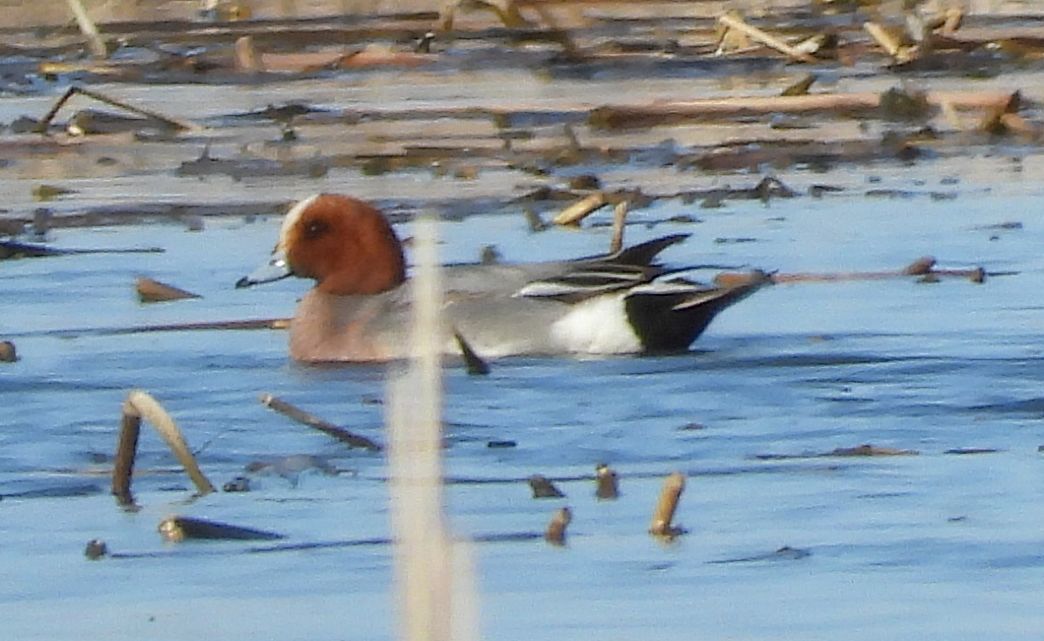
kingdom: Animalia
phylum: Chordata
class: Aves
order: Anseriformes
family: Anatidae
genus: Mareca
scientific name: Mareca penelope
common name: Eurasian wigeon
